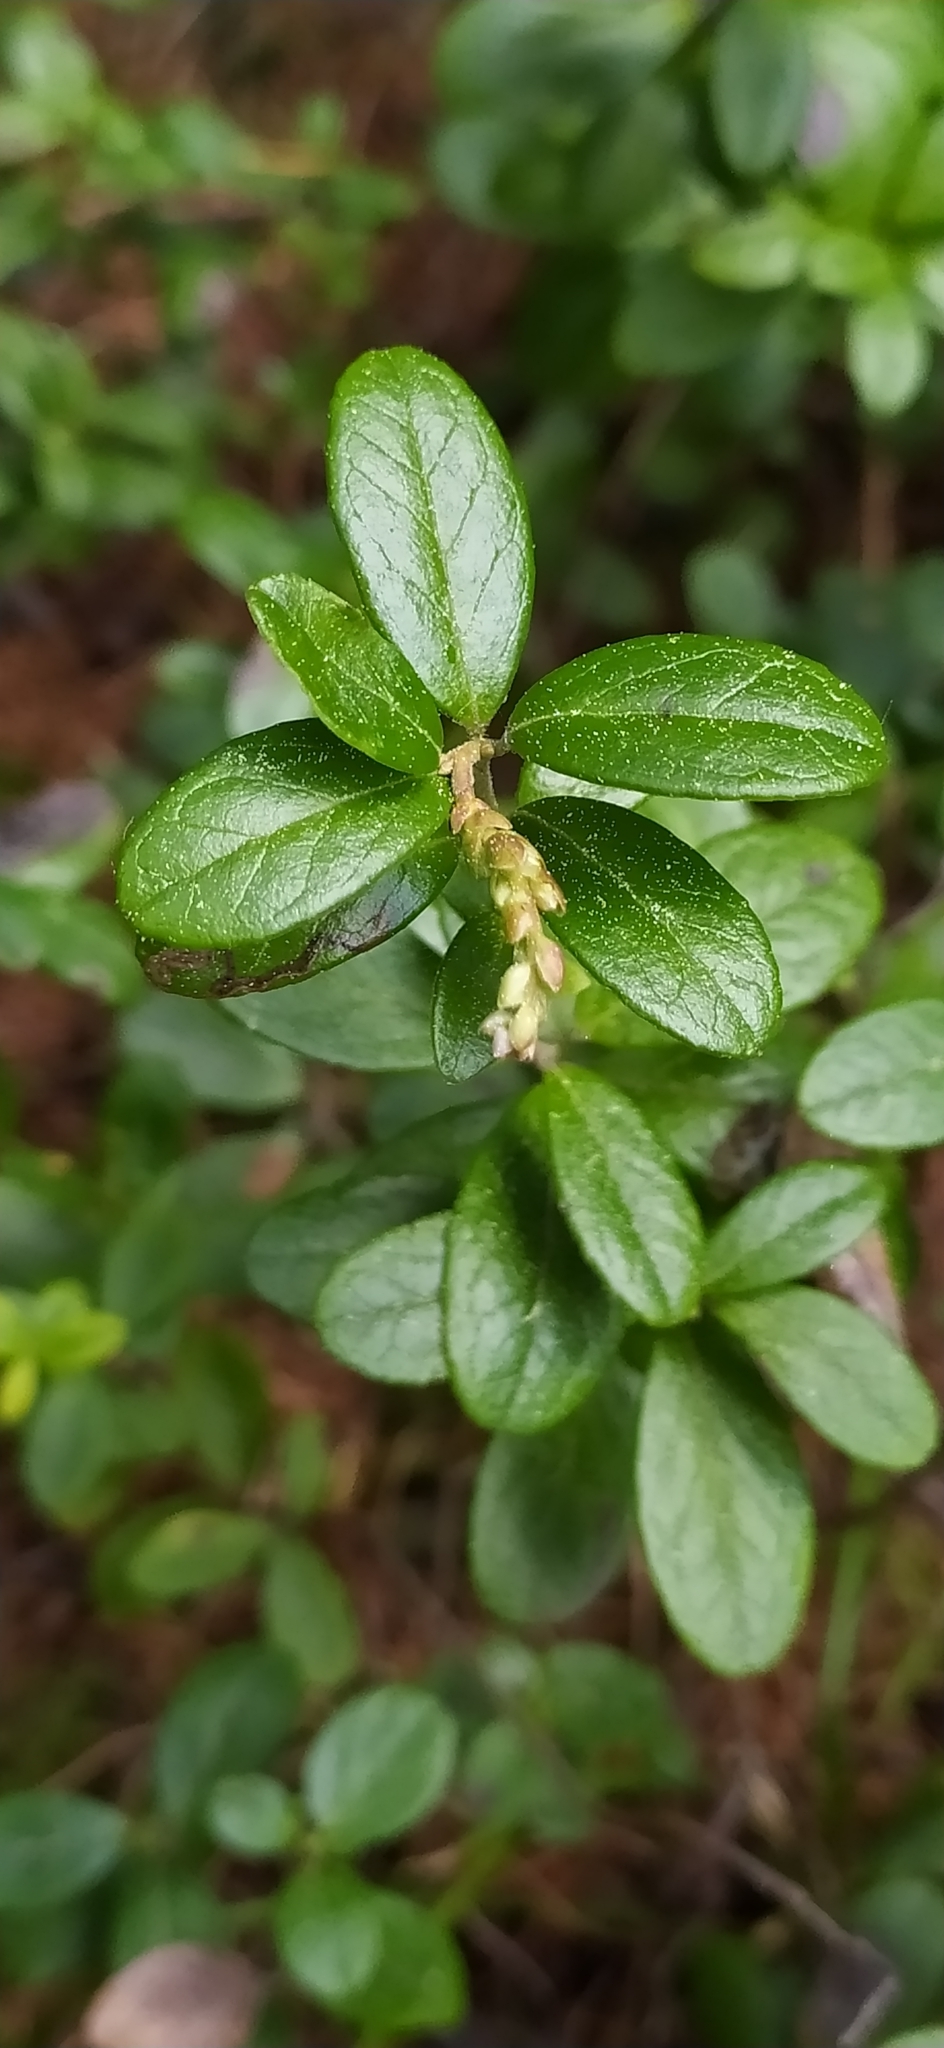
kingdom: Plantae
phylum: Tracheophyta
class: Magnoliopsida
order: Ericales
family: Ericaceae
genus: Vaccinium
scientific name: Vaccinium vitis-idaea
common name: Cowberry
